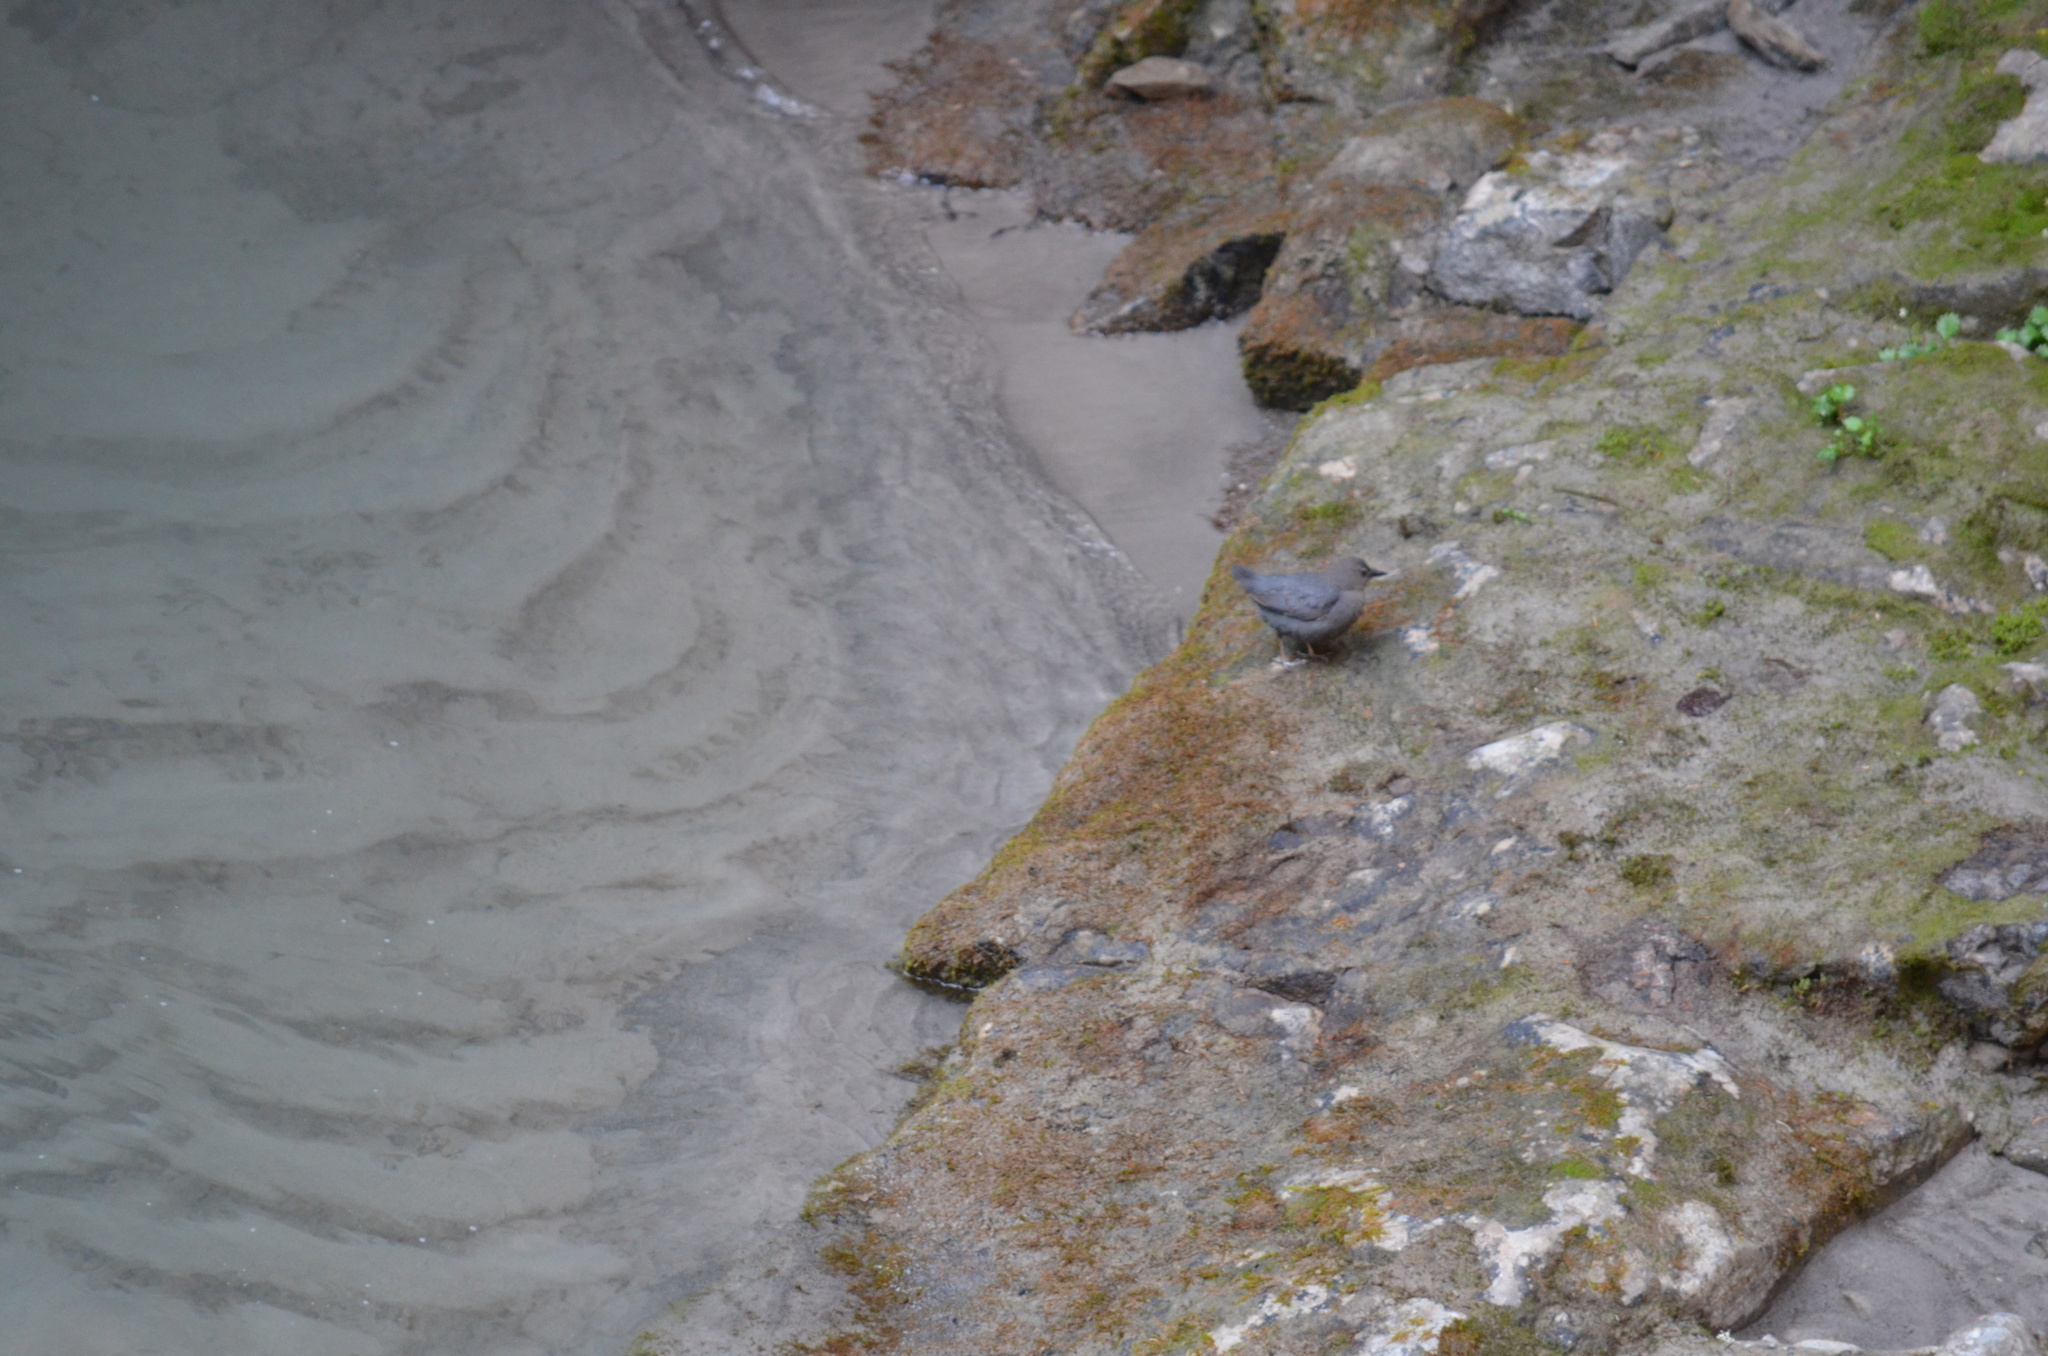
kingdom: Animalia
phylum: Chordata
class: Aves
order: Passeriformes
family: Cinclidae
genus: Cinclus
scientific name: Cinclus mexicanus
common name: American dipper
